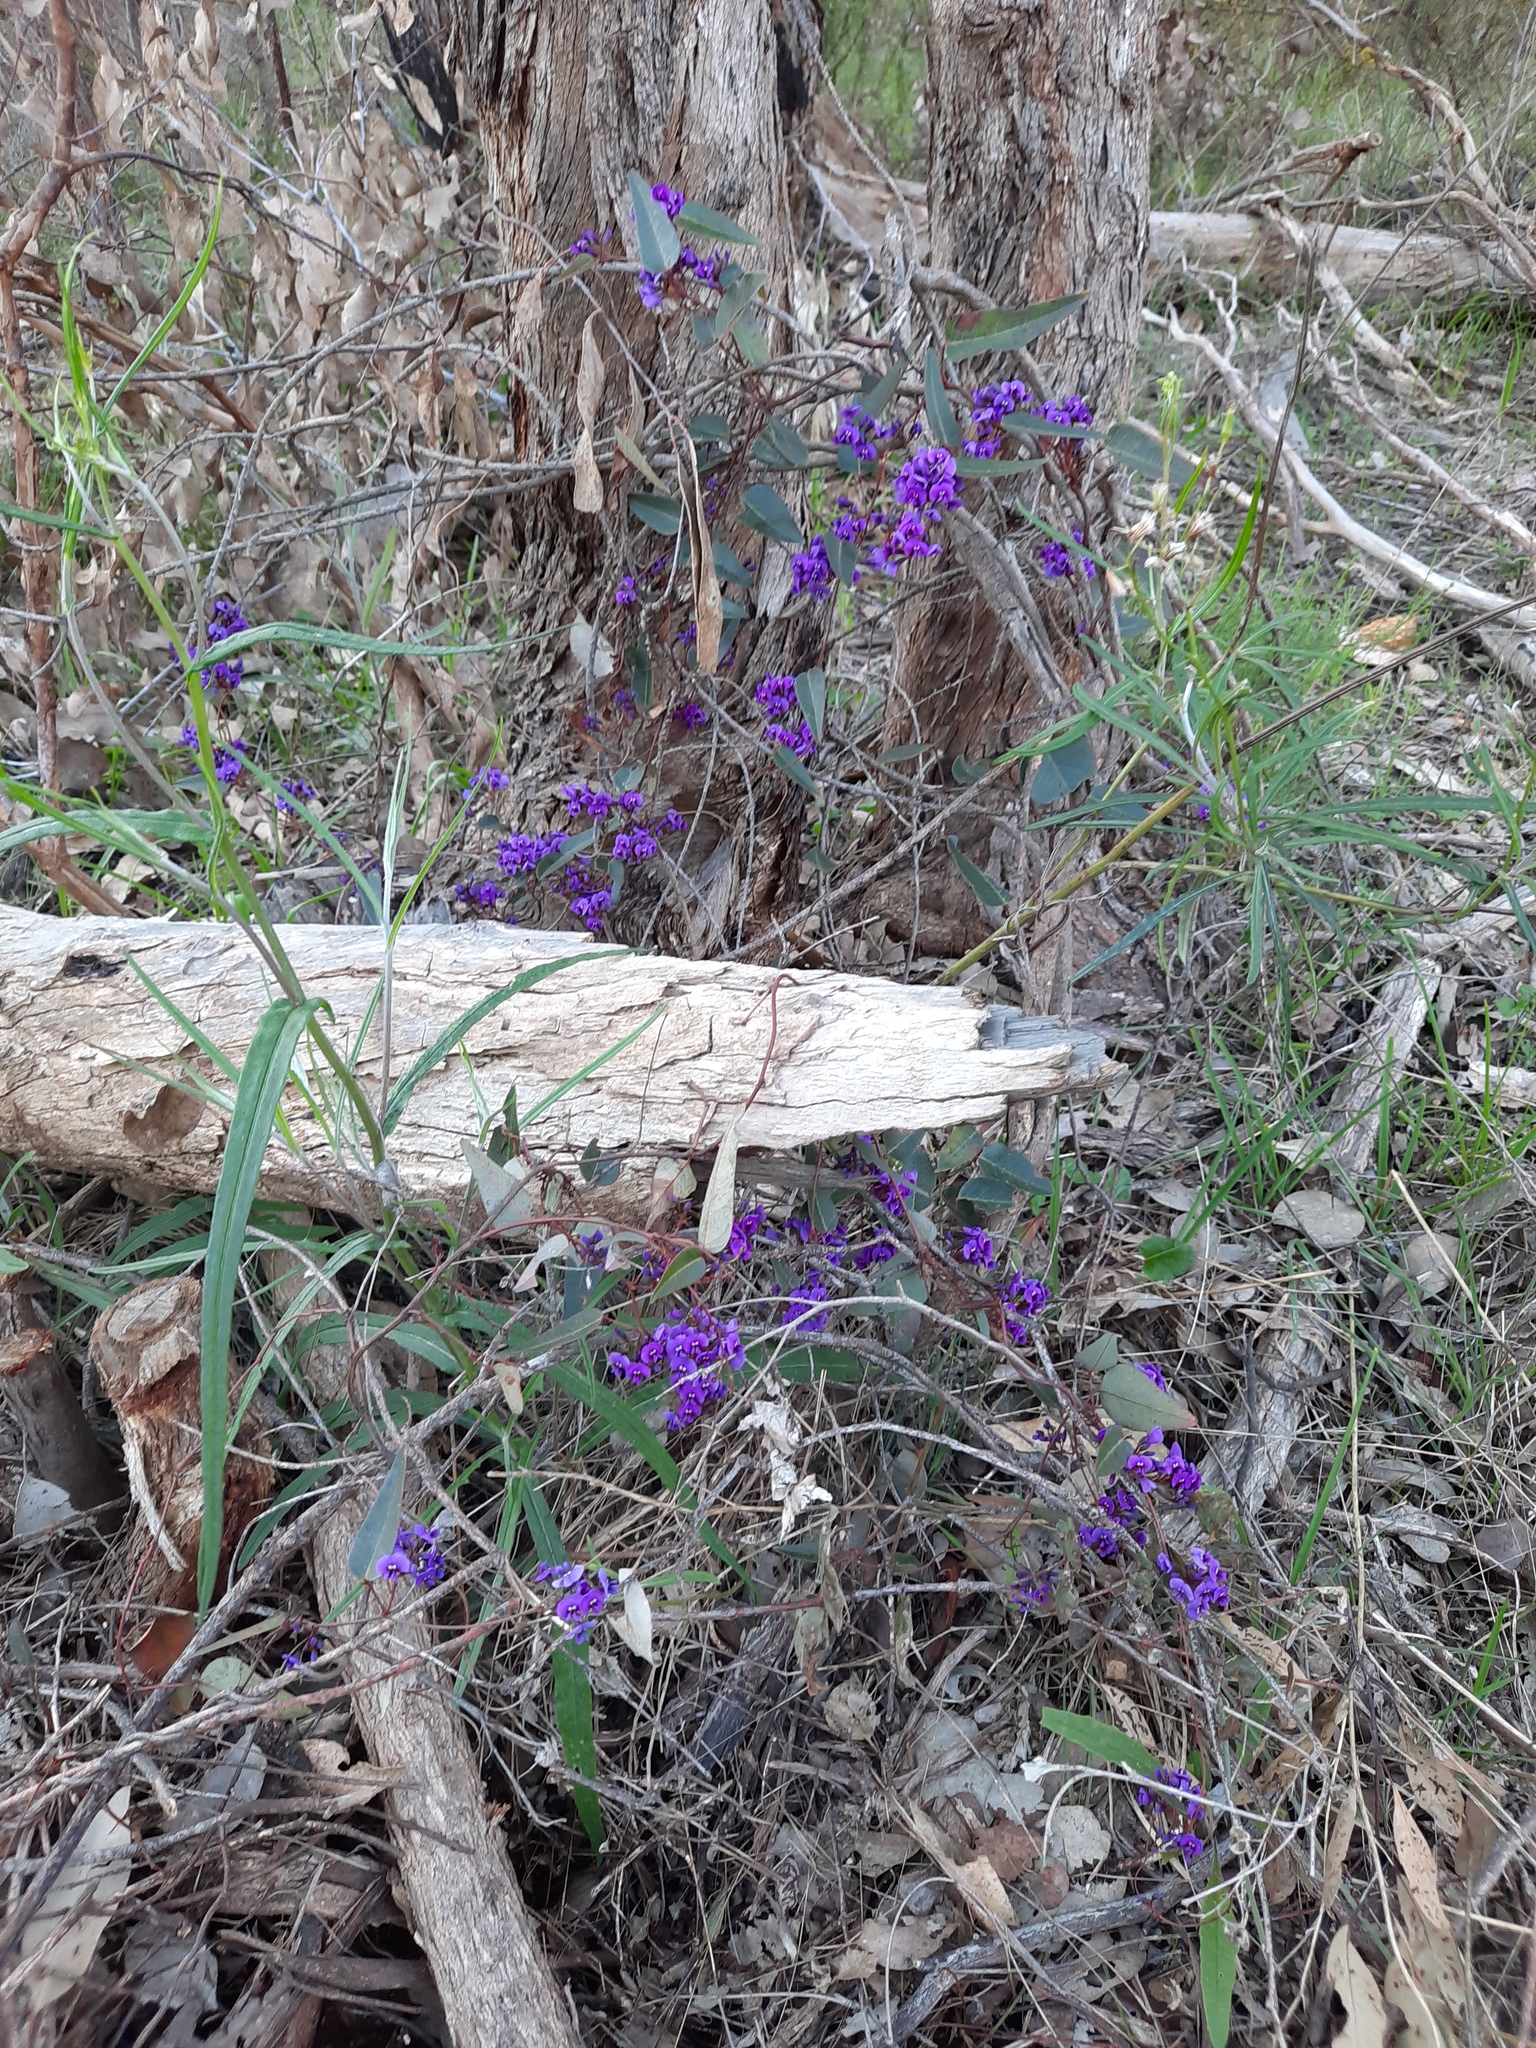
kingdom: Plantae
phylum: Tracheophyta
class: Magnoliopsida
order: Fabales
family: Fabaceae
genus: Hardenbergia
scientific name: Hardenbergia violacea
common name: Coral-pea
